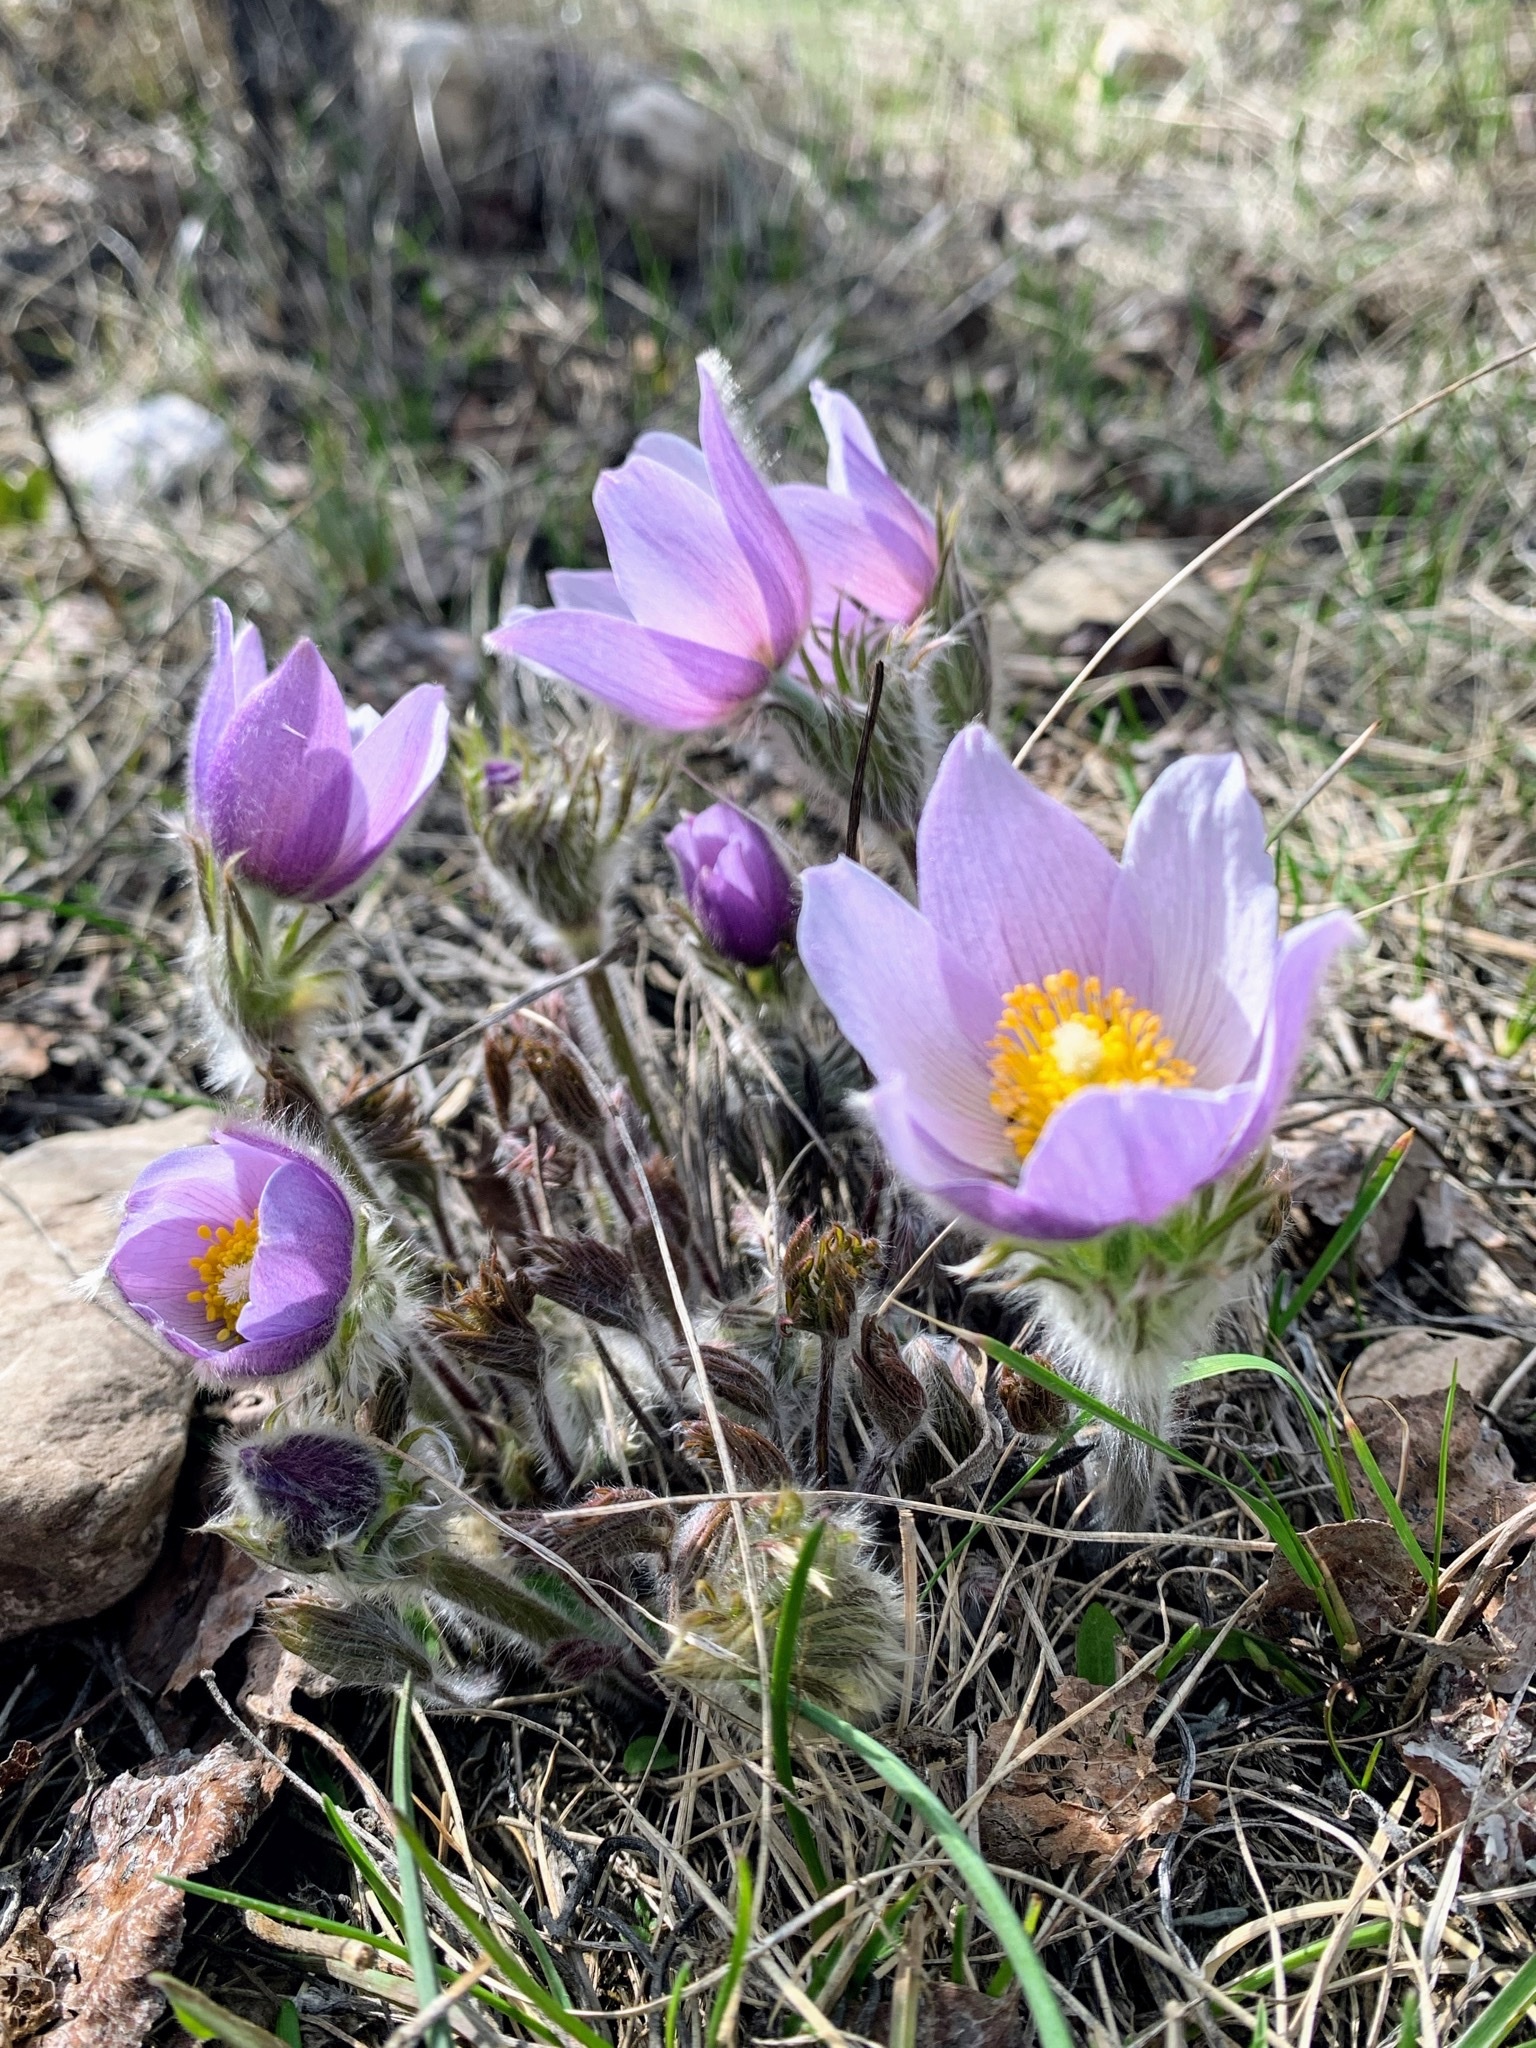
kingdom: Plantae
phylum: Tracheophyta
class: Magnoliopsida
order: Ranunculales
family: Ranunculaceae
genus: Pulsatilla
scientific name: Pulsatilla nuttalliana
